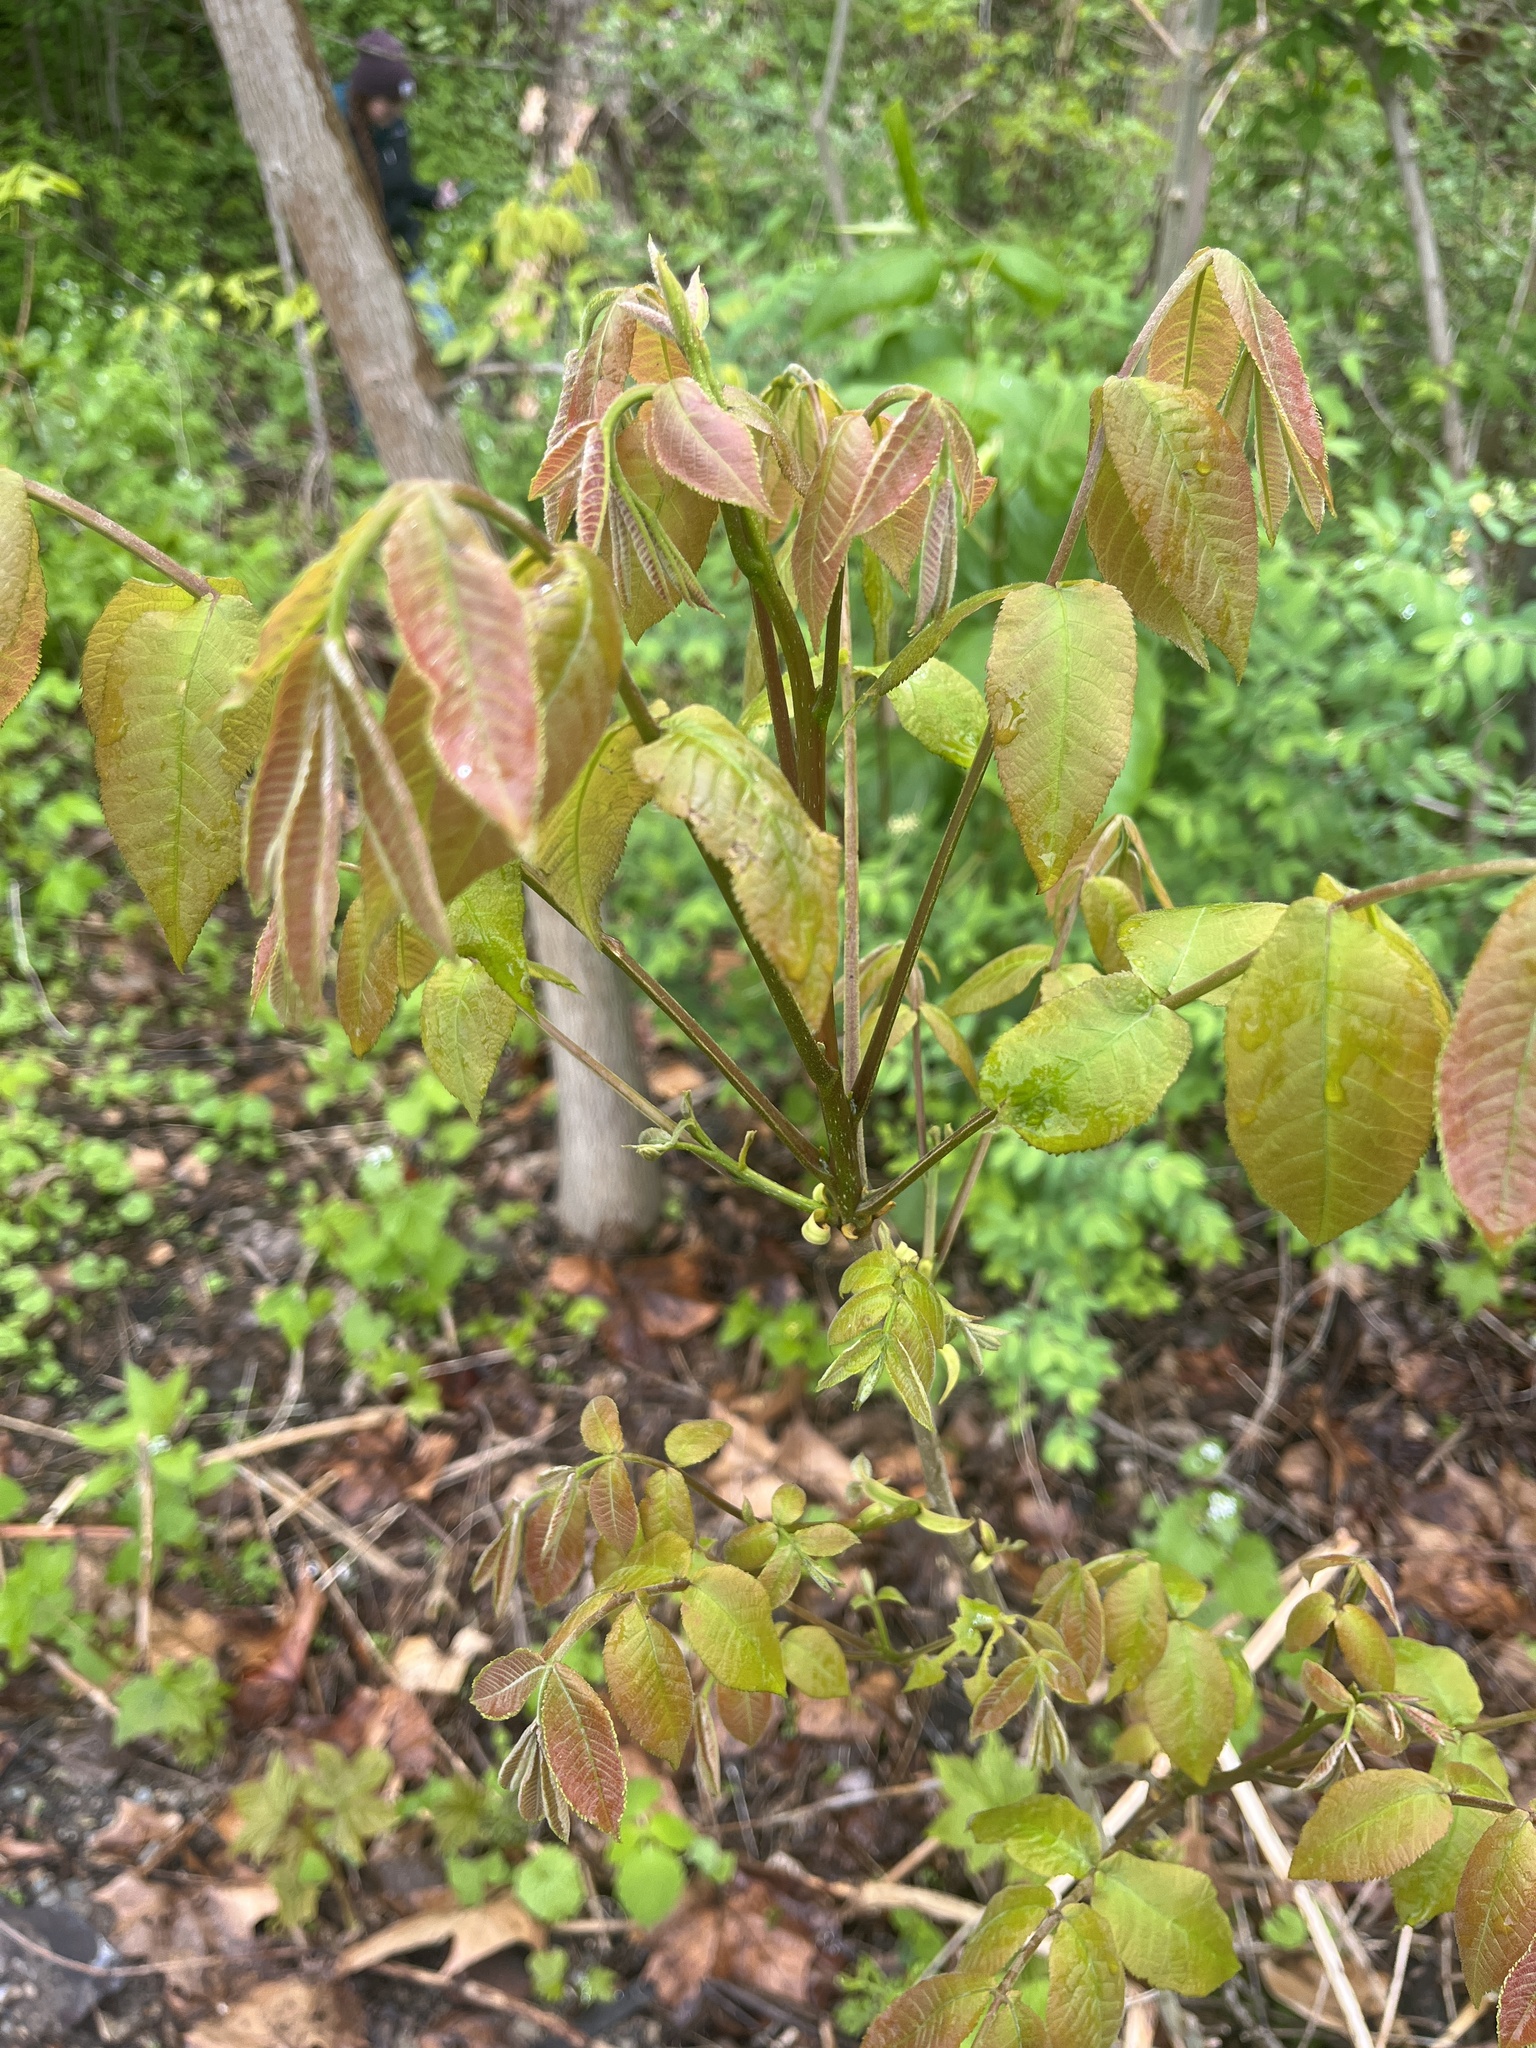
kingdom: Plantae
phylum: Tracheophyta
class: Magnoliopsida
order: Fagales
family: Juglandaceae
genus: Carya
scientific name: Carya cordiformis
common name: Bitternut hickory
